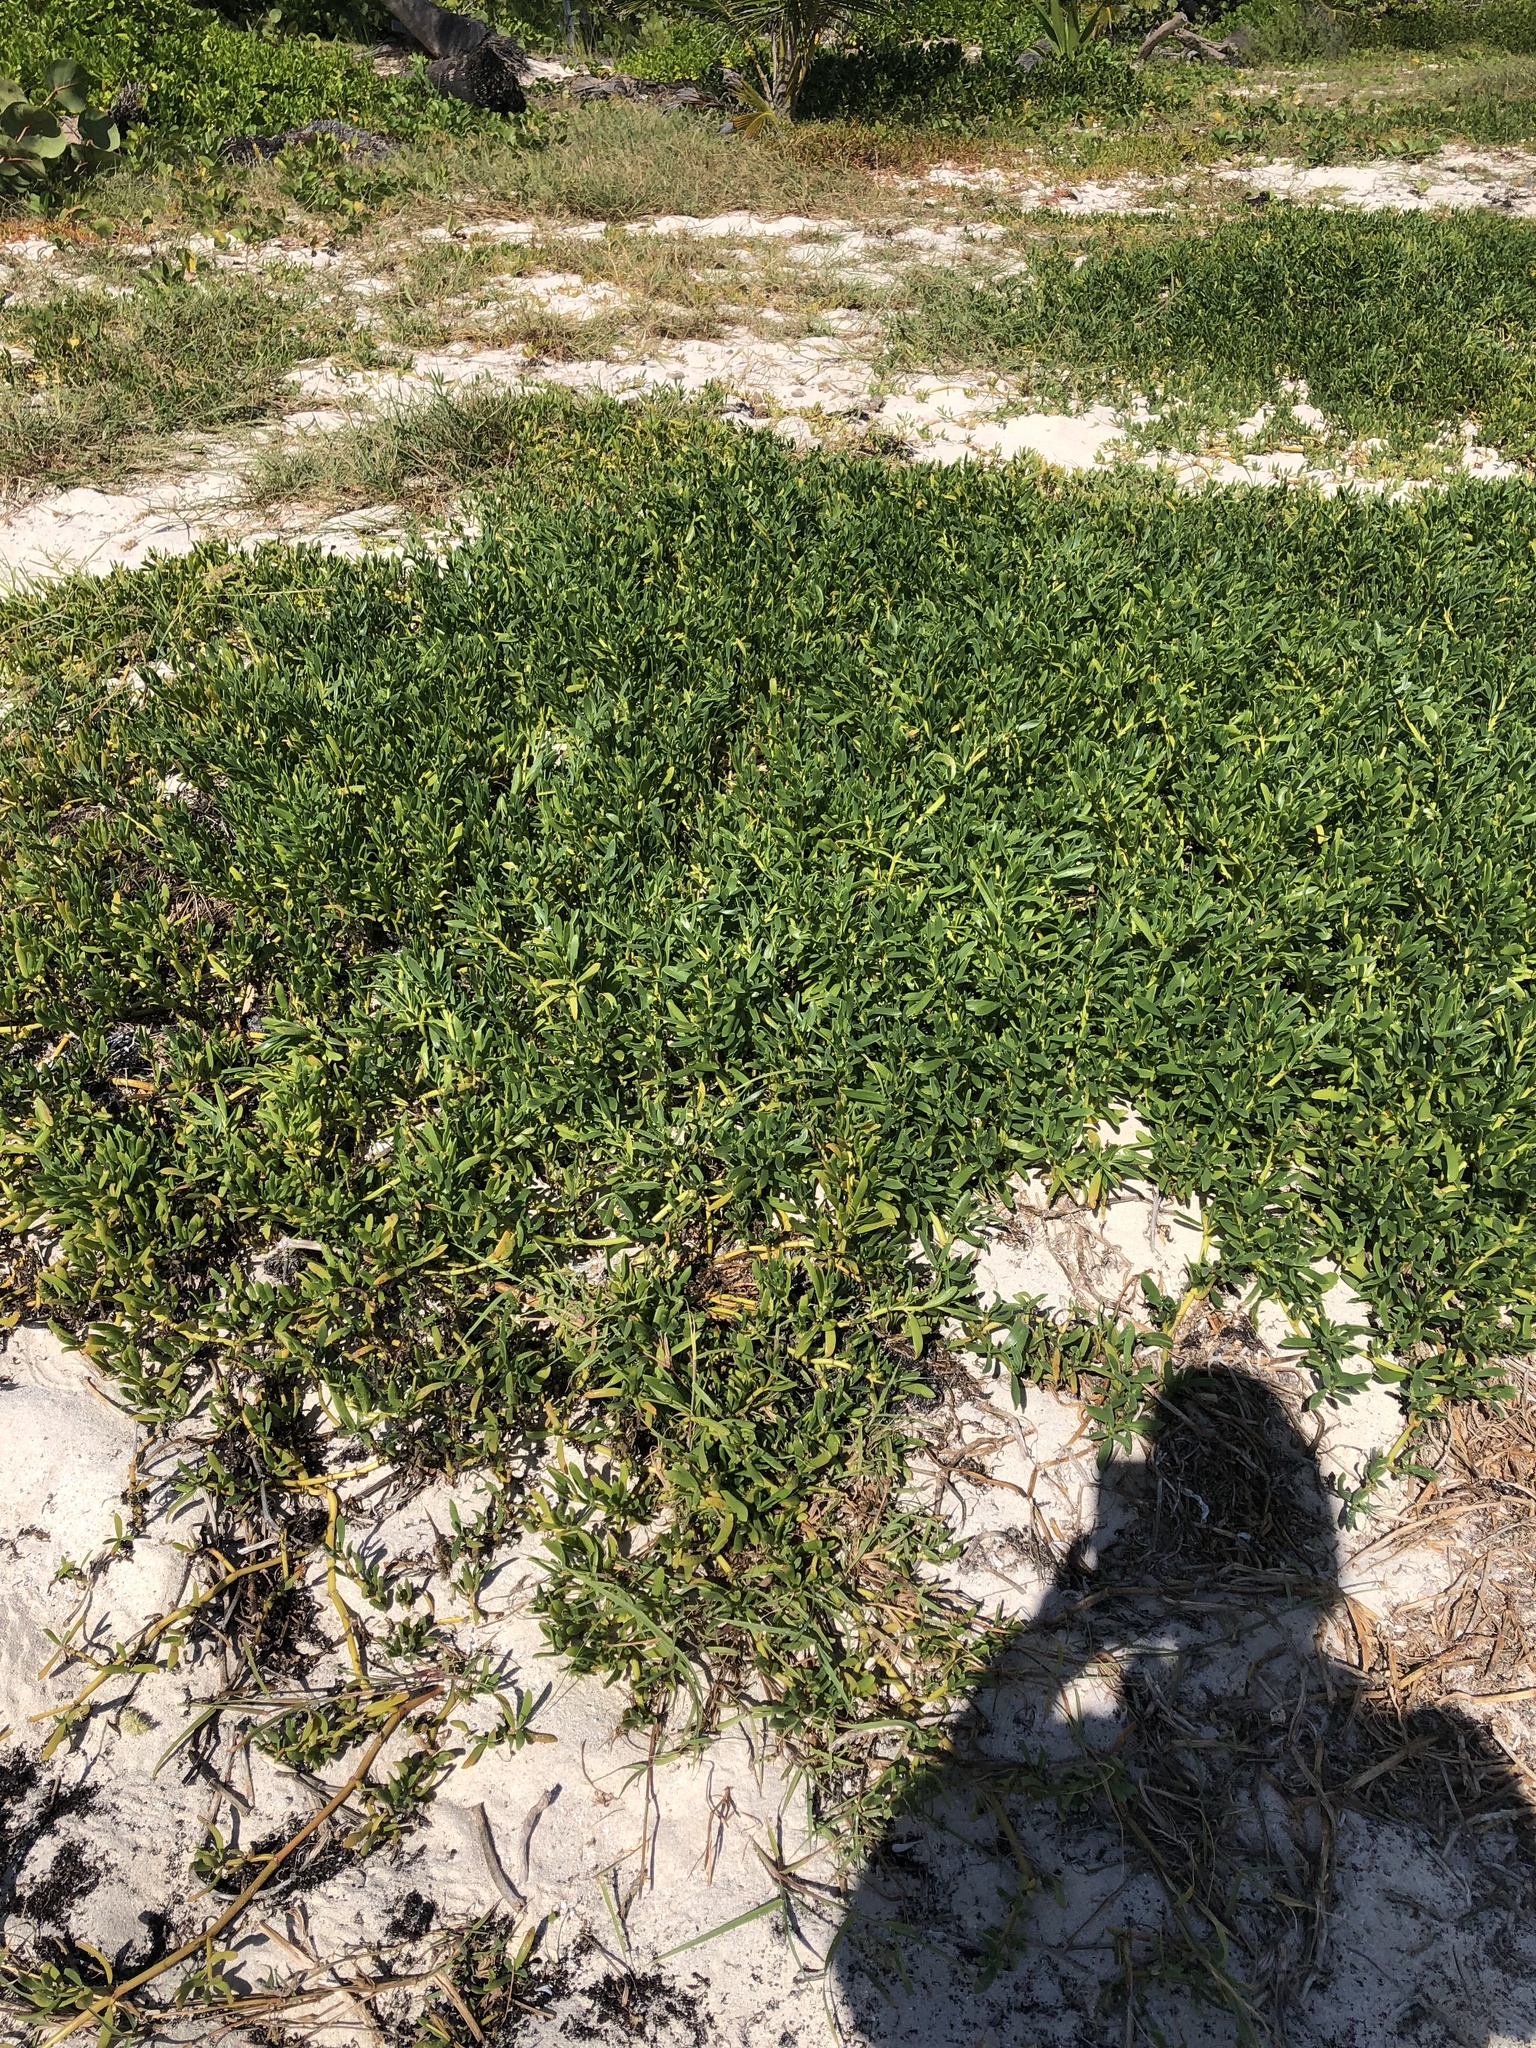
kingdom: Plantae
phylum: Tracheophyta
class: Magnoliopsida
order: Caryophyllales
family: Aizoaceae
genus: Sesuvium
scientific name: Sesuvium portulacastrum
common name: Sea-purslane
